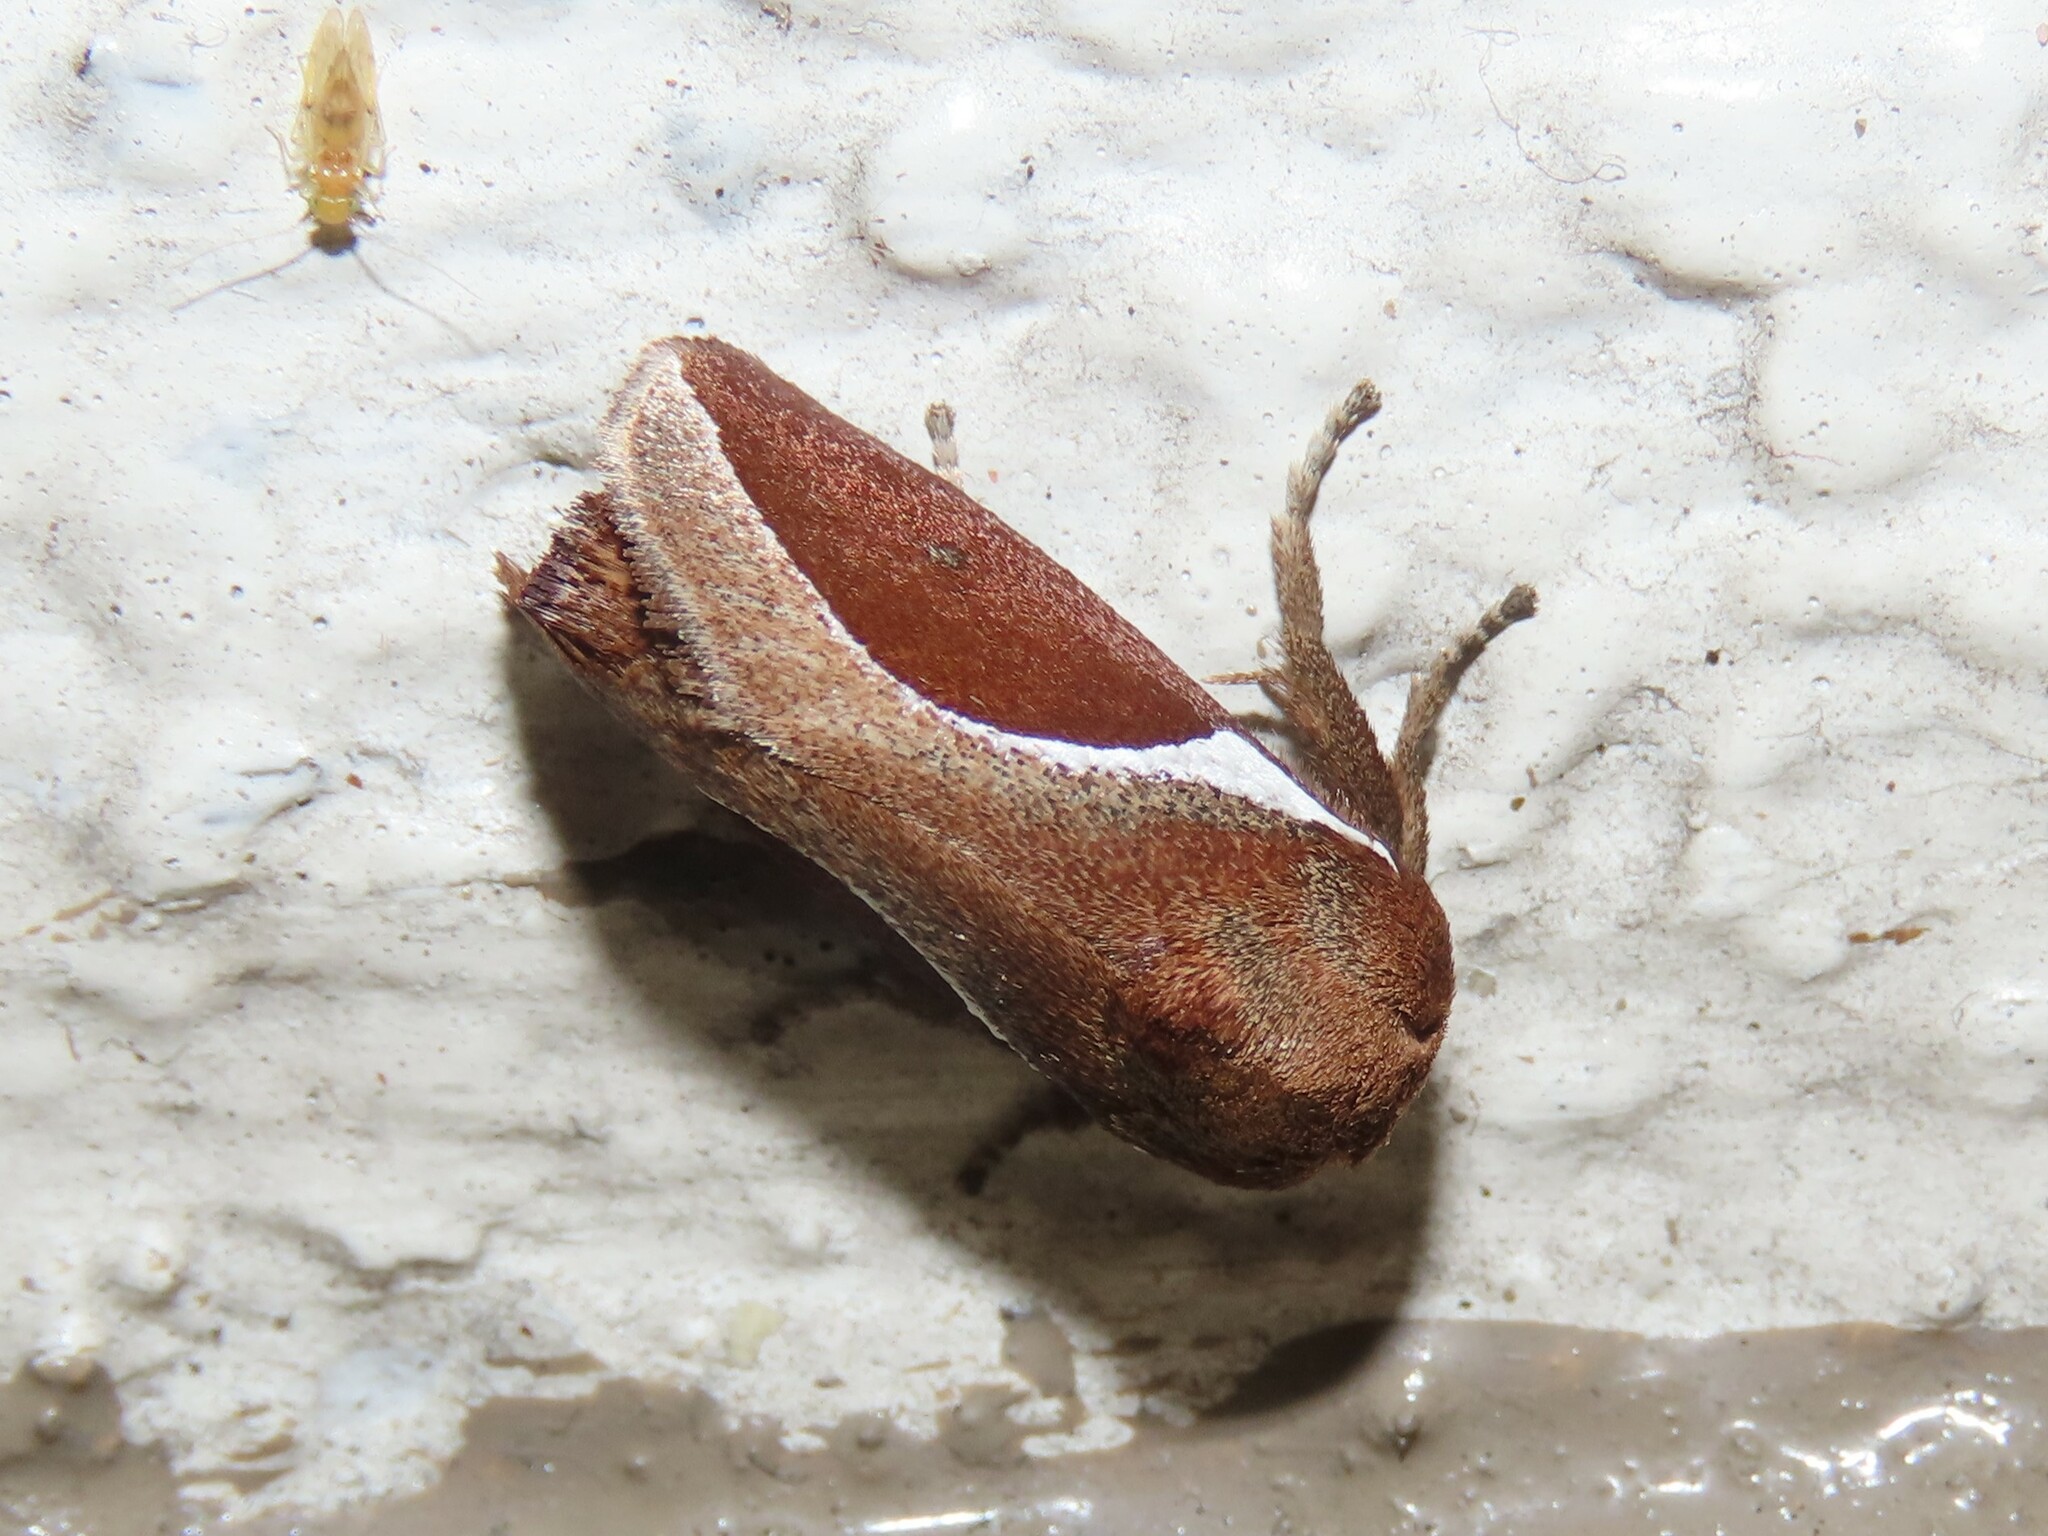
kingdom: Animalia
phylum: Arthropoda
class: Insecta
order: Lepidoptera
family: Limacodidae
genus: Prolimacodes
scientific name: Prolimacodes badia
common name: Skiff moth
